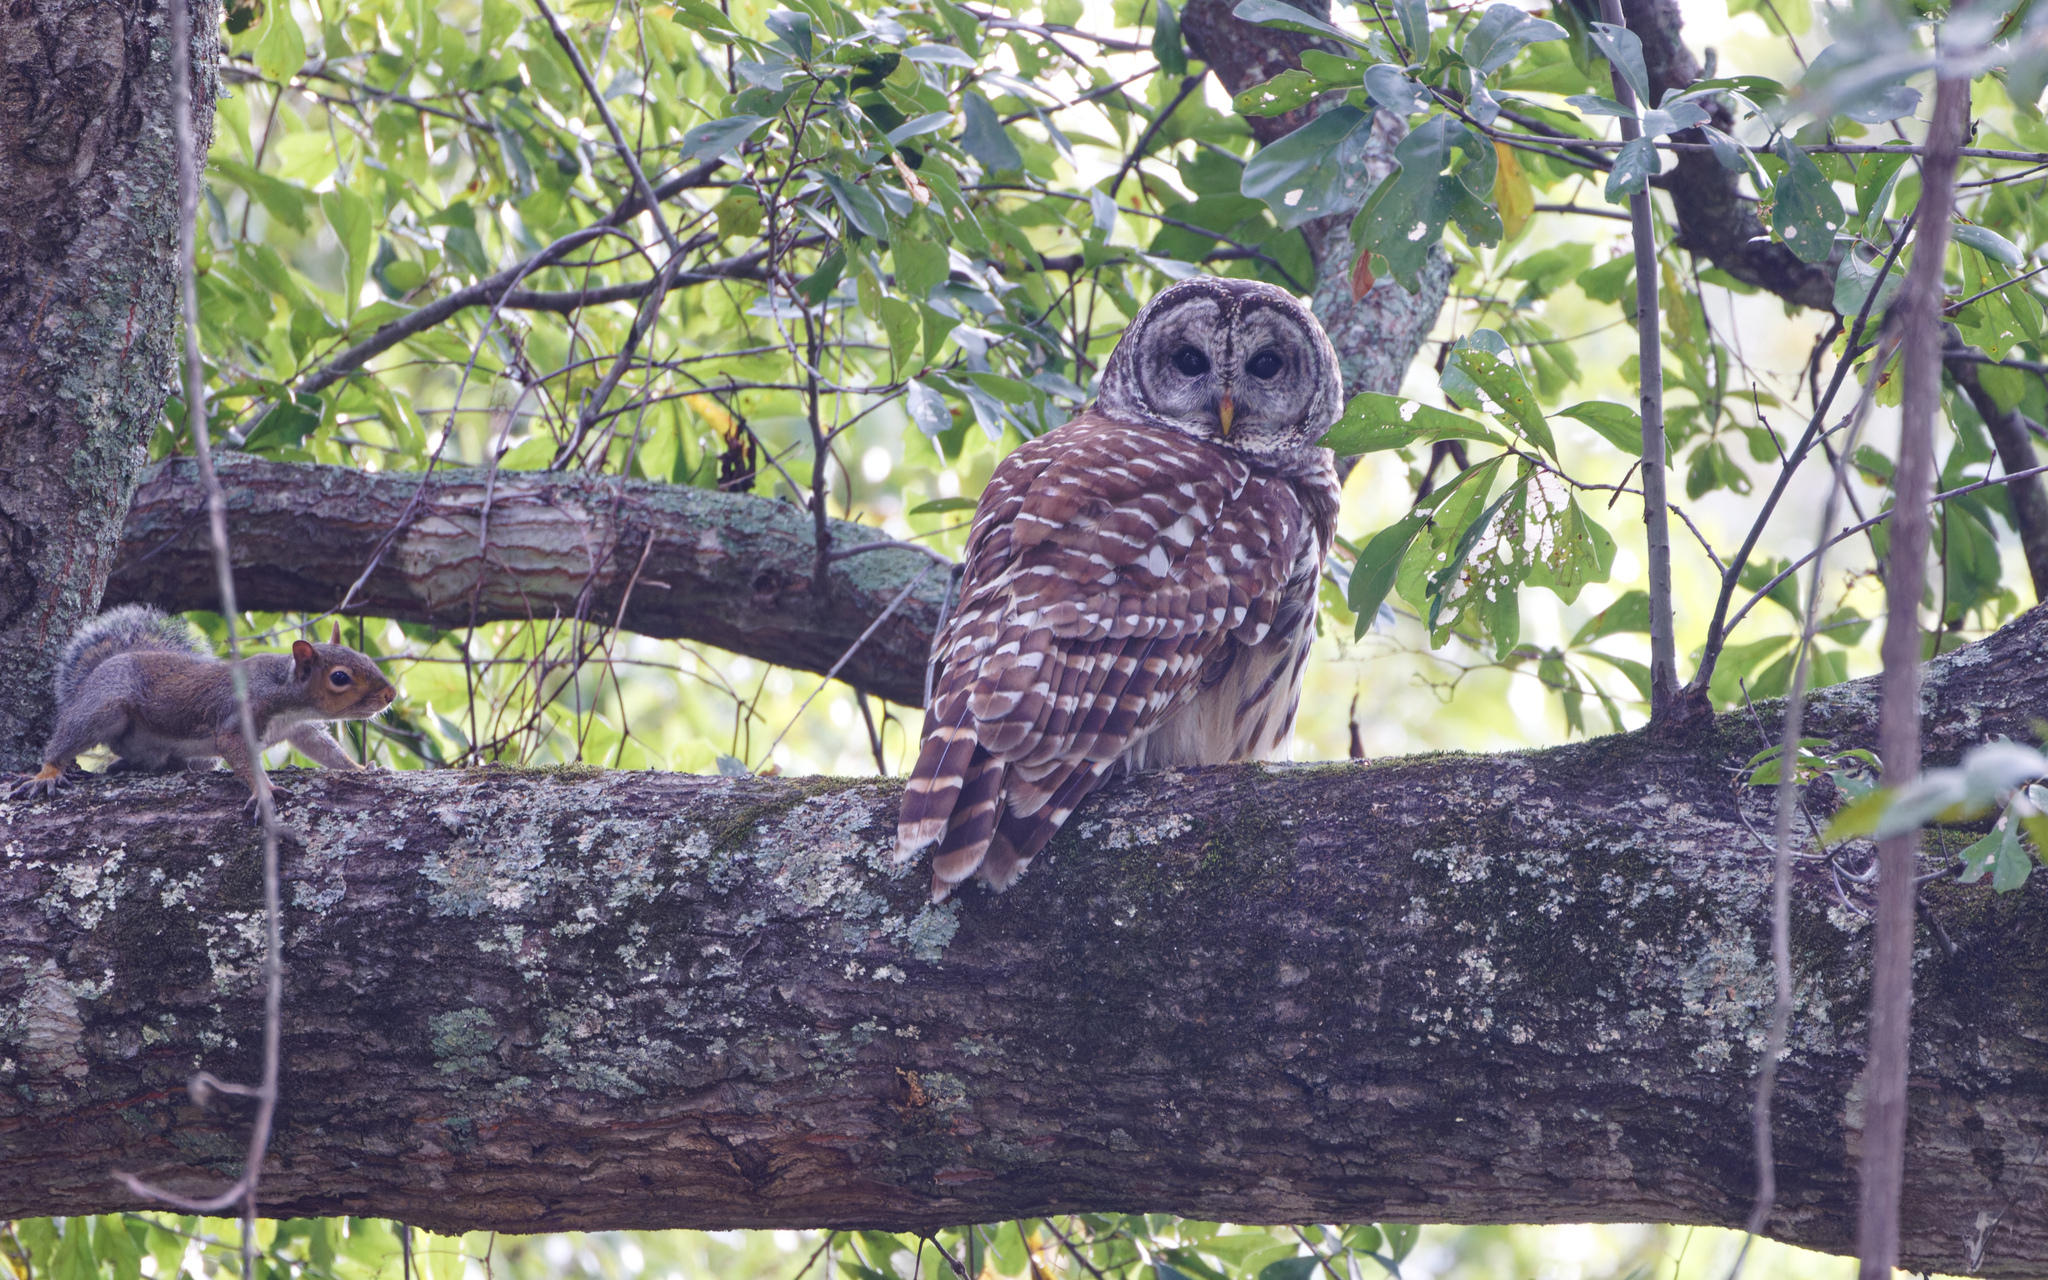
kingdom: Animalia
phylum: Chordata
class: Aves
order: Strigiformes
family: Strigidae
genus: Strix
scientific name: Strix varia
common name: Barred owl
